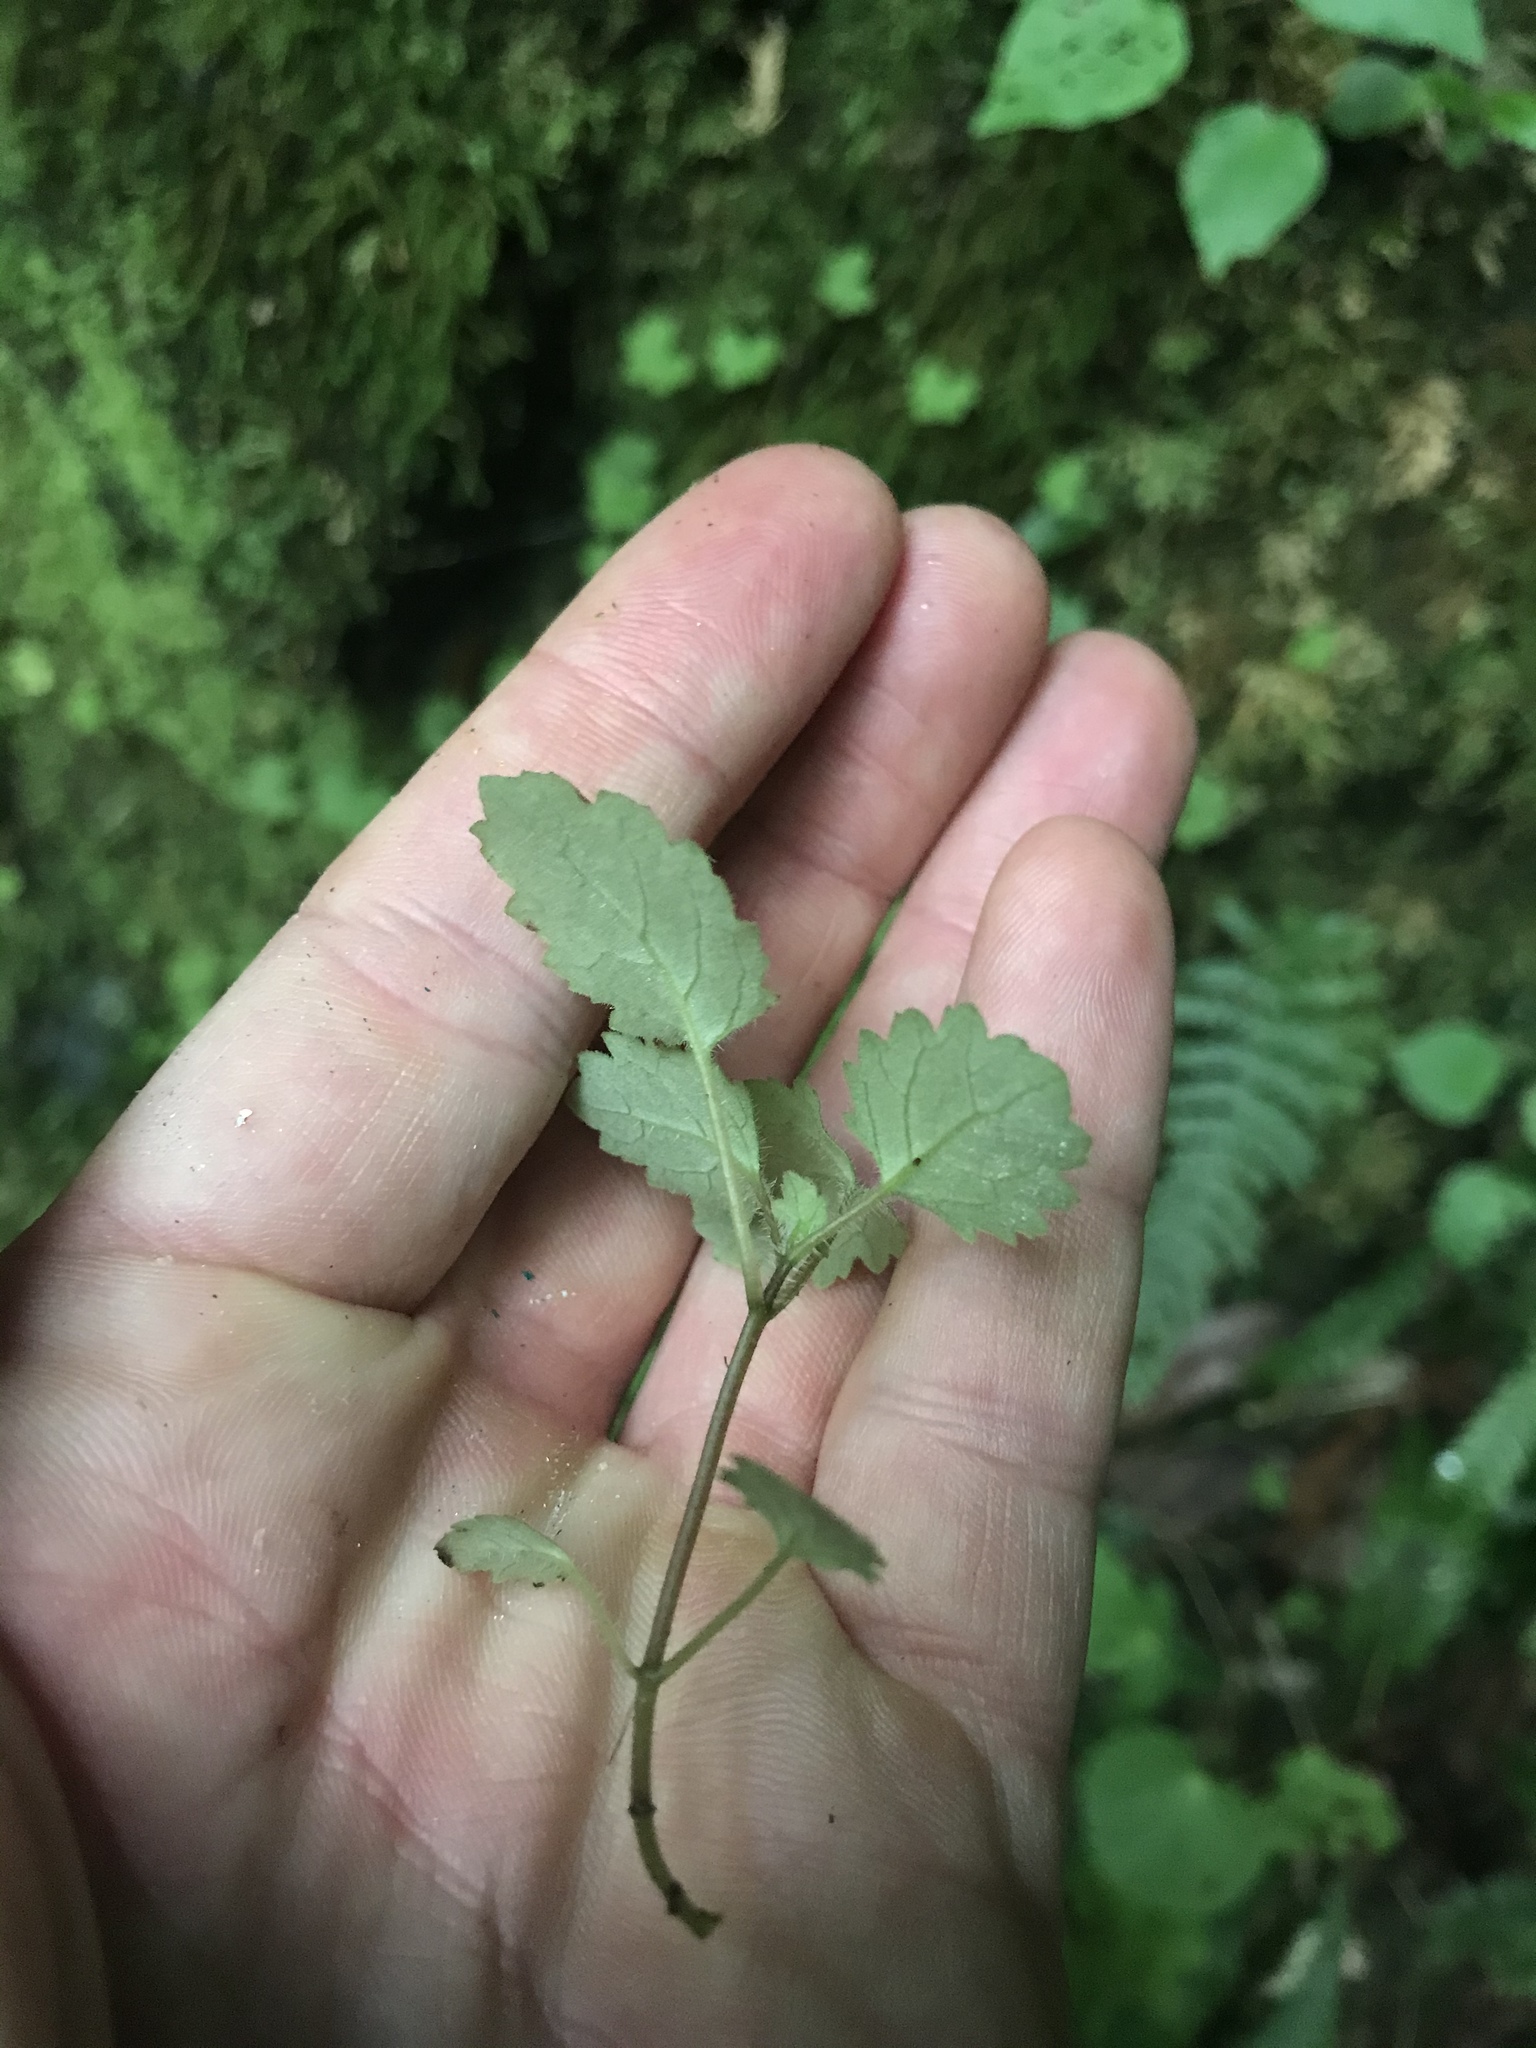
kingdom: Plantae
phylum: Tracheophyta
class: Magnoliopsida
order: Rosales
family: Urticaceae
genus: Australina
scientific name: Australina pusilla
